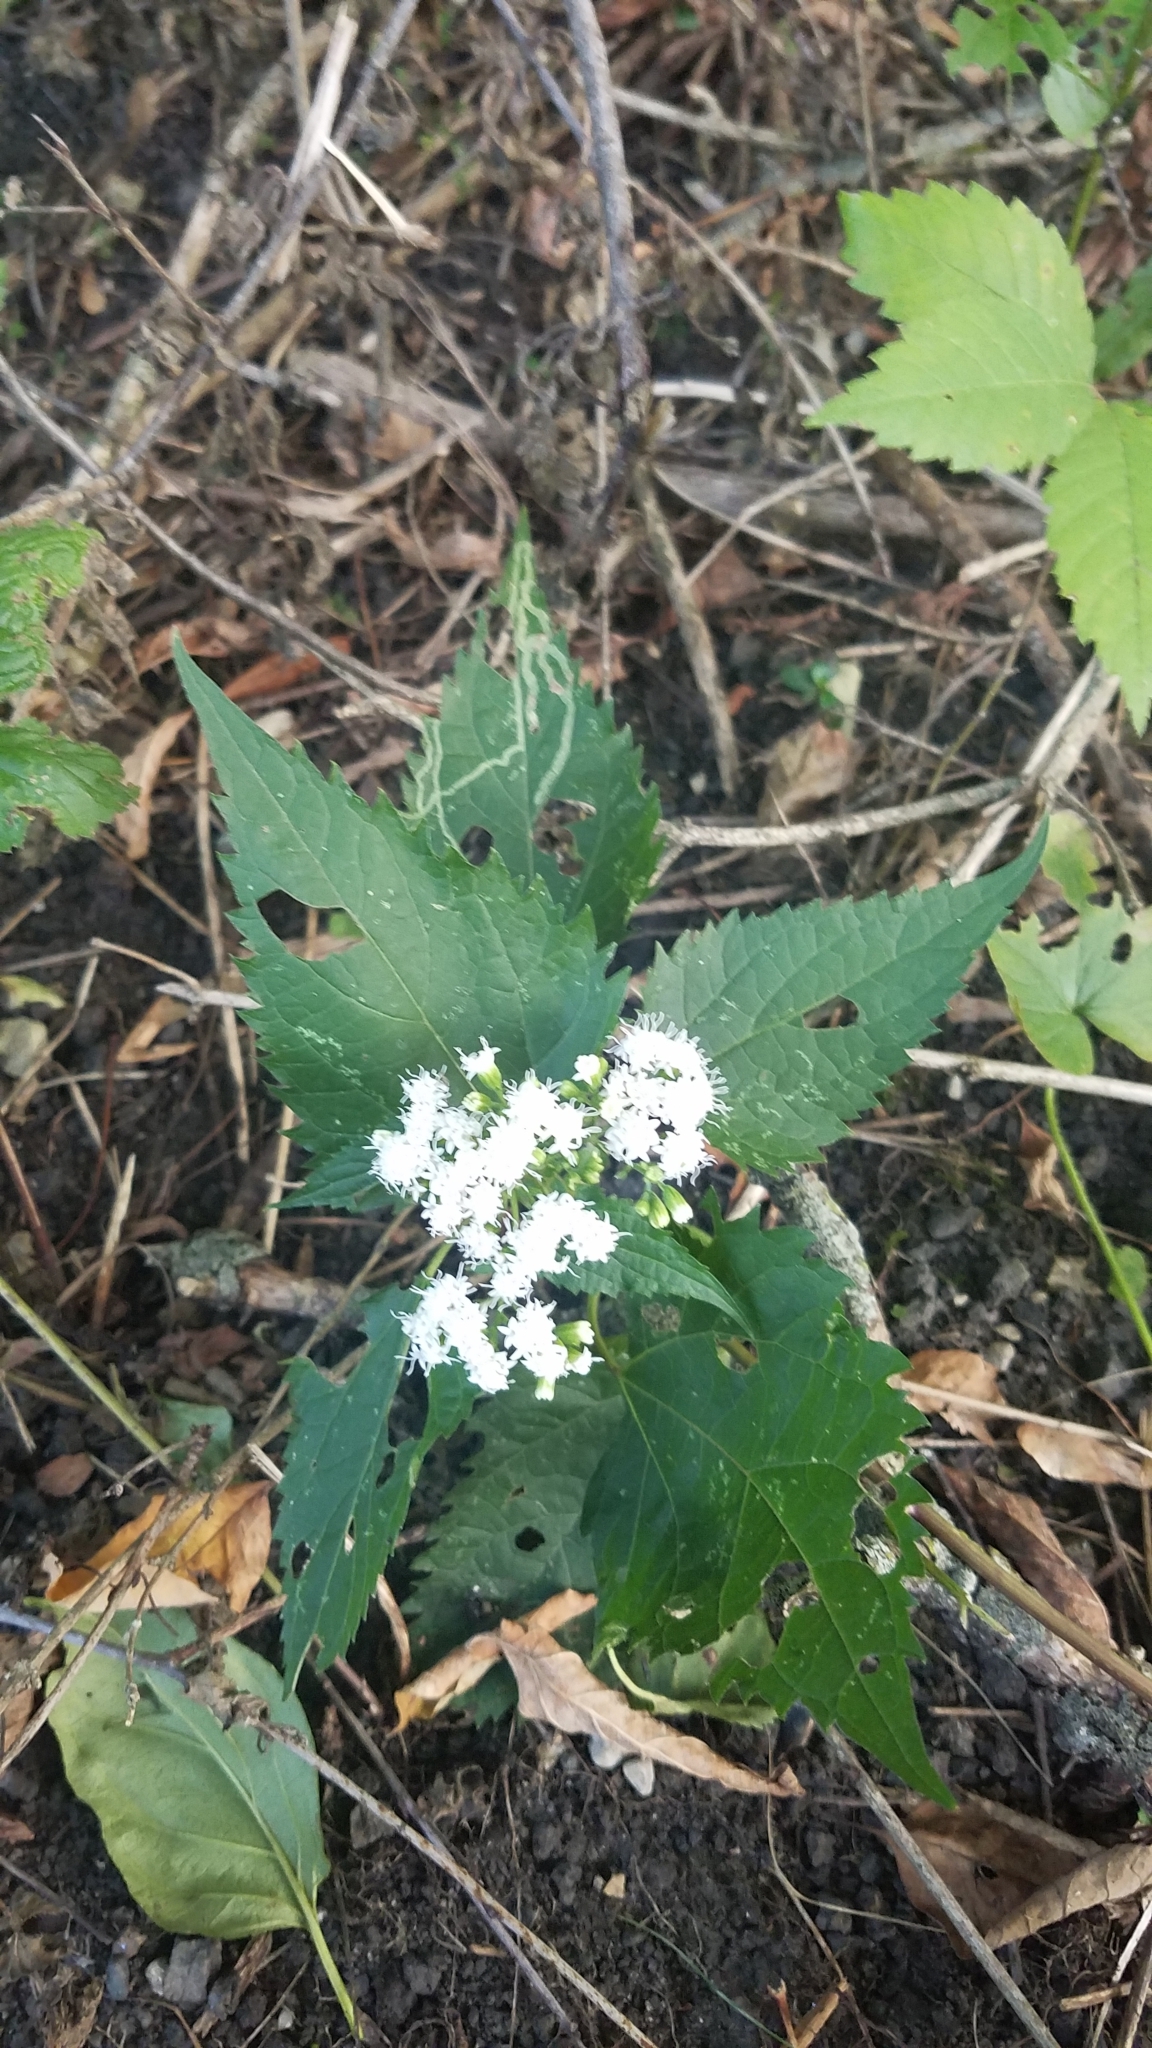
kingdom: Plantae
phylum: Tracheophyta
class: Magnoliopsida
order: Asterales
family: Asteraceae
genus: Ageratina
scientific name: Ageratina altissima
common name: White snakeroot
